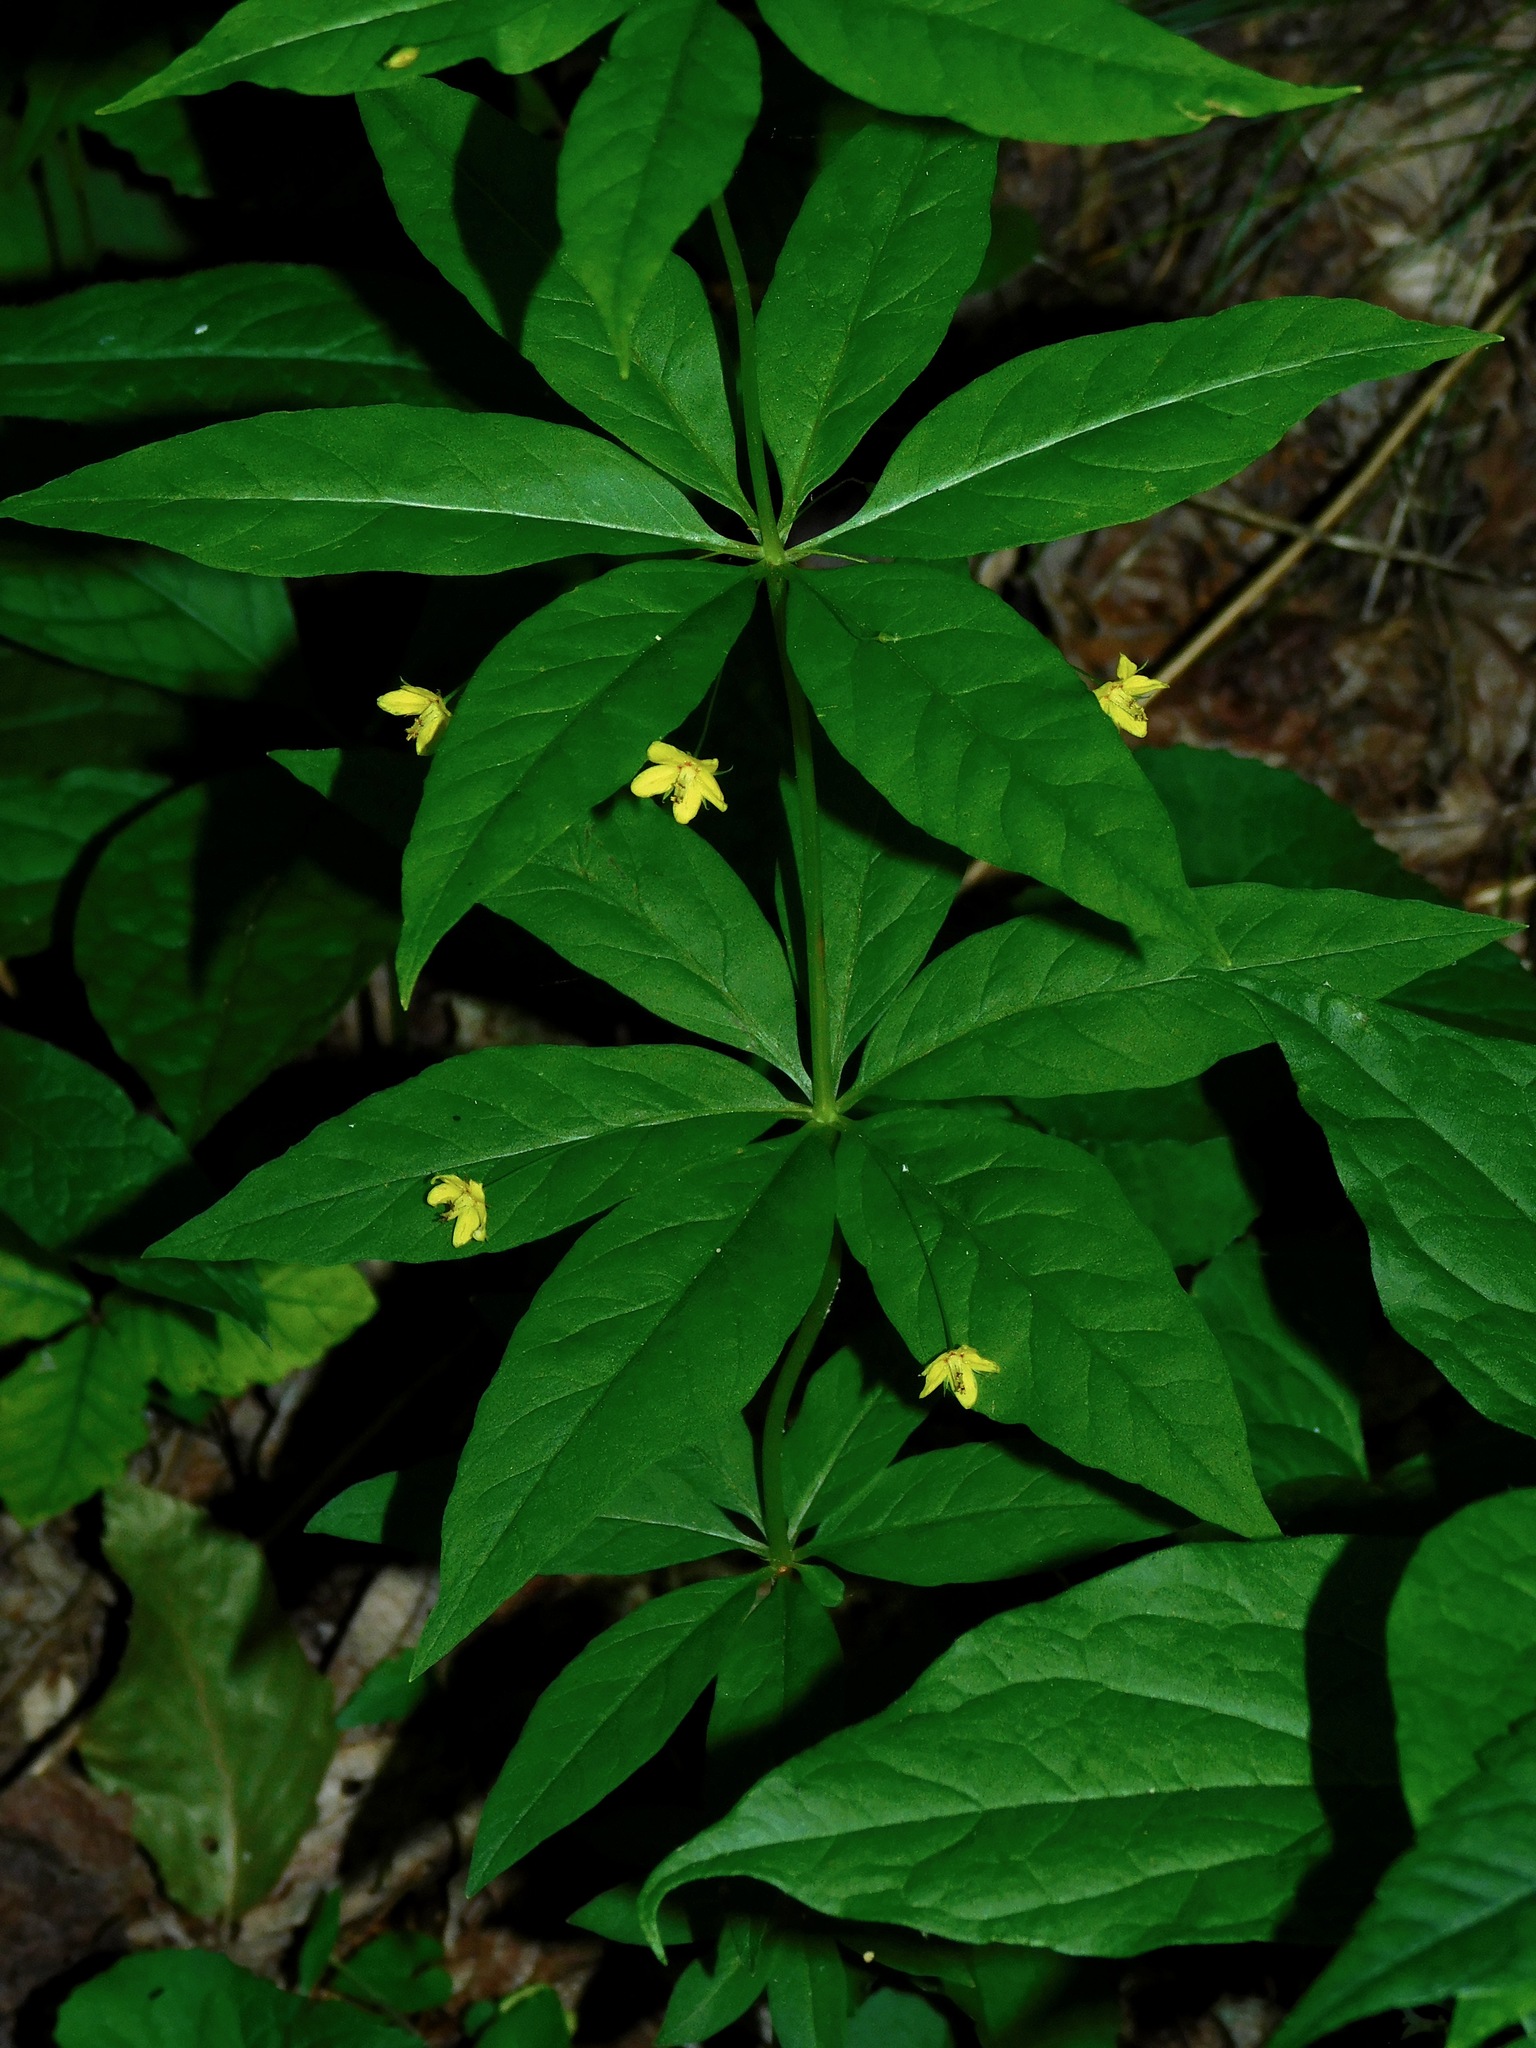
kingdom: Plantae
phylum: Tracheophyta
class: Magnoliopsida
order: Ericales
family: Primulaceae
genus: Lysimachia
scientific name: Lysimachia quadrifolia
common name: Whorled loosestrife
